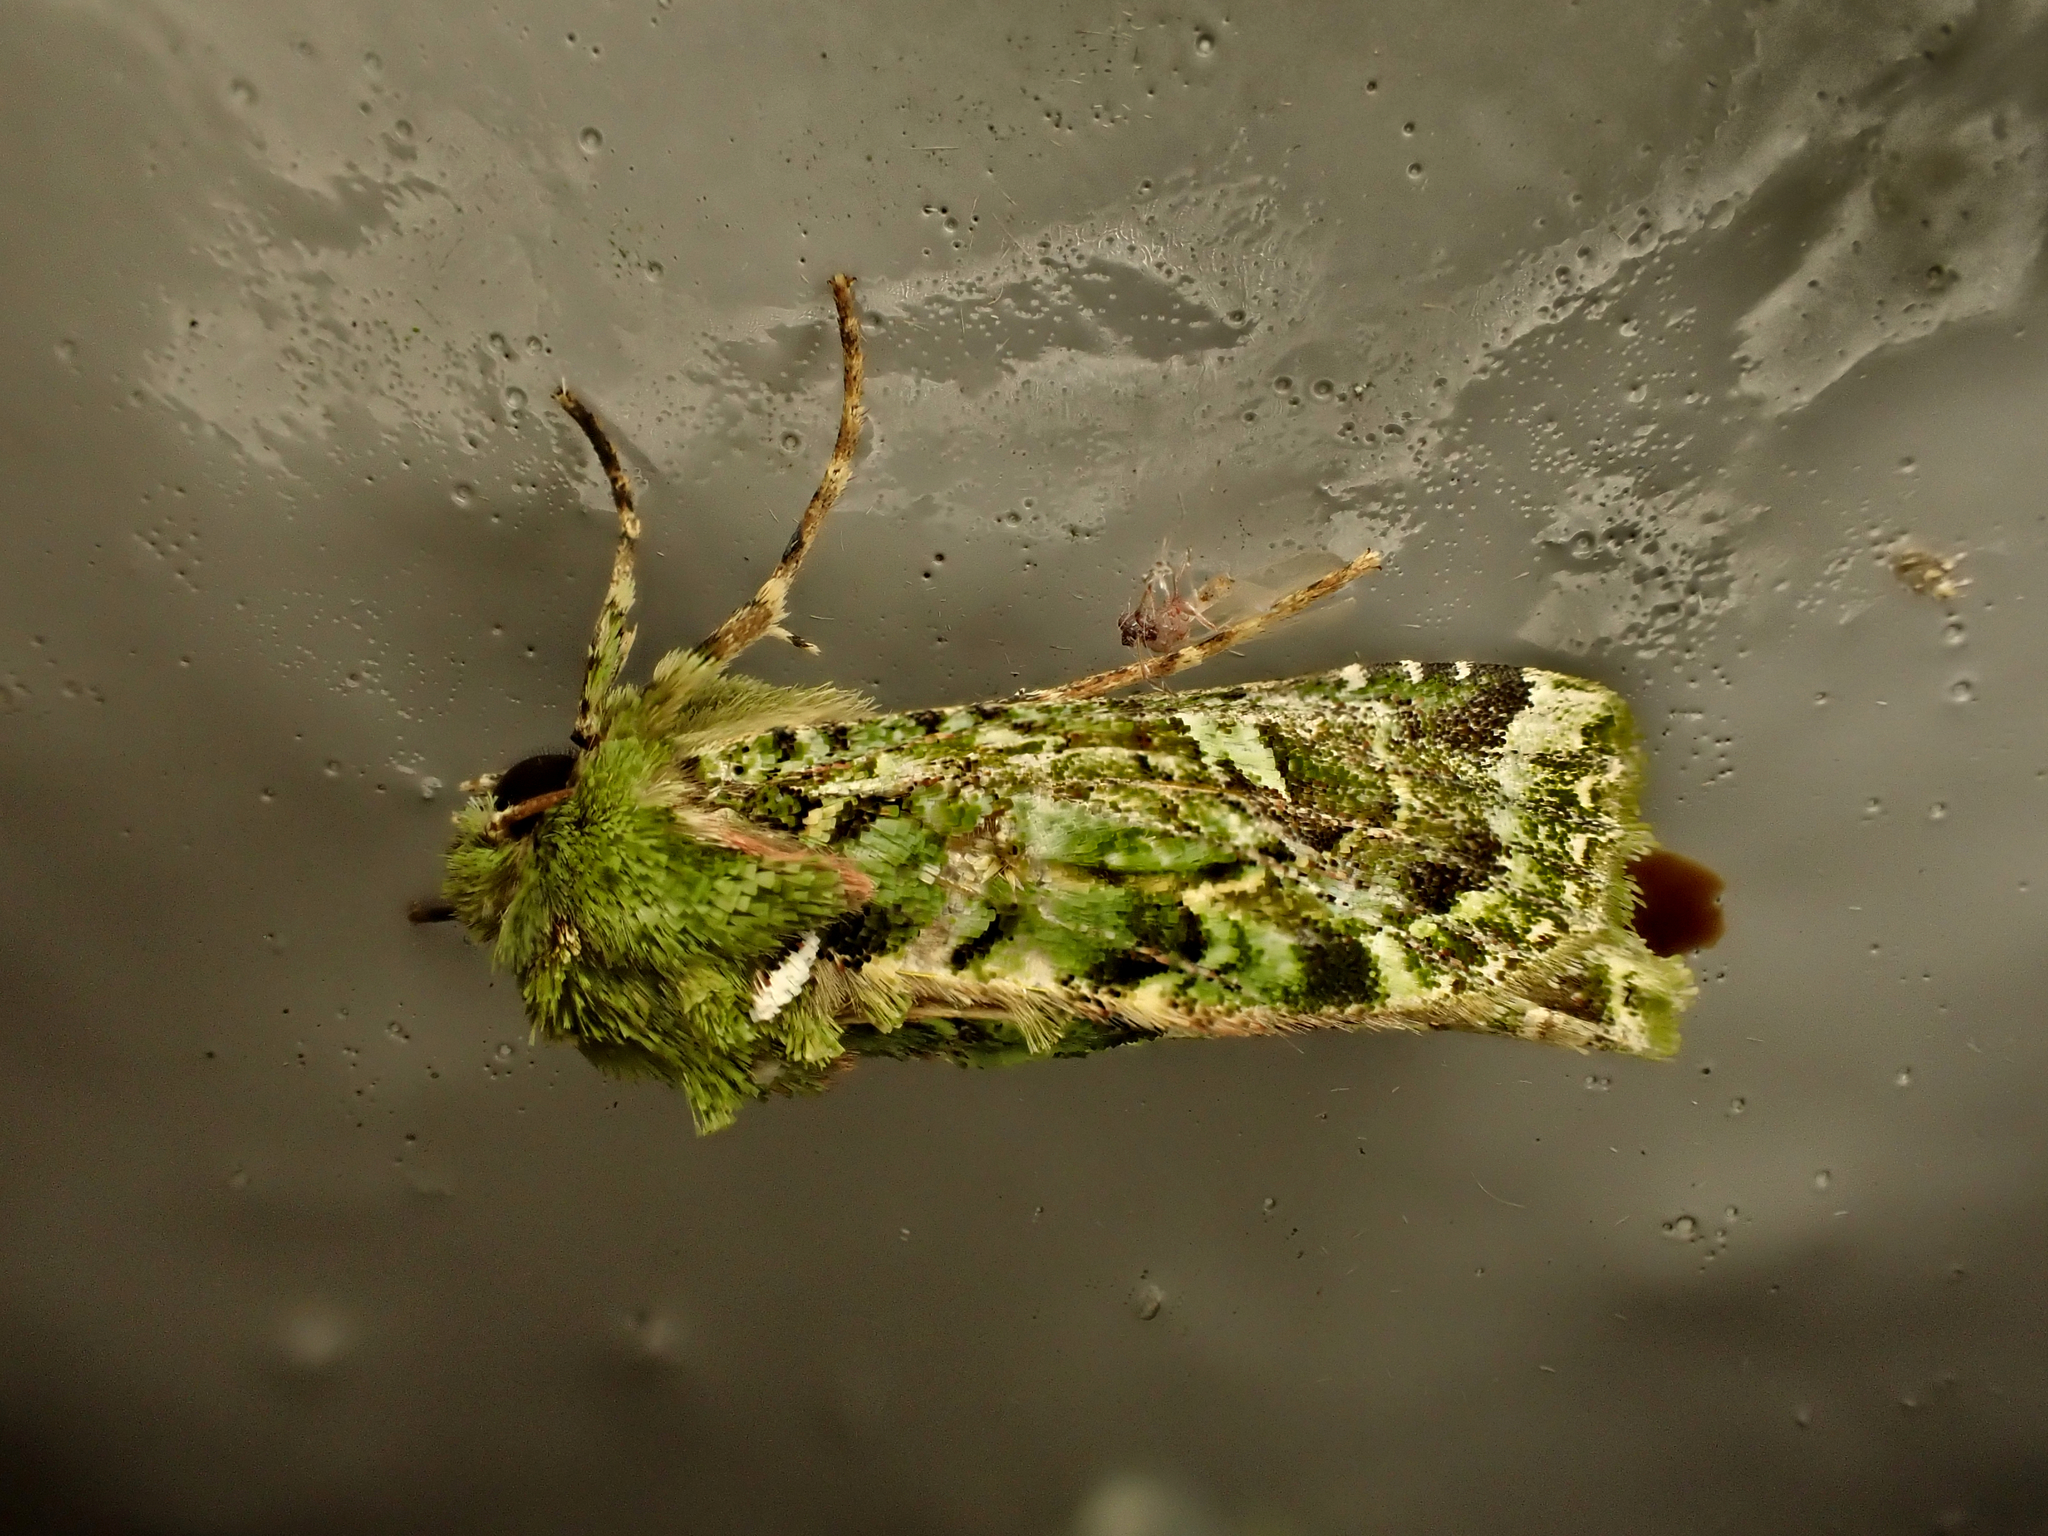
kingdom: Animalia
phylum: Arthropoda
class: Insecta
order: Lepidoptera
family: Noctuidae
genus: Feredayia
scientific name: Feredayia grammosa
